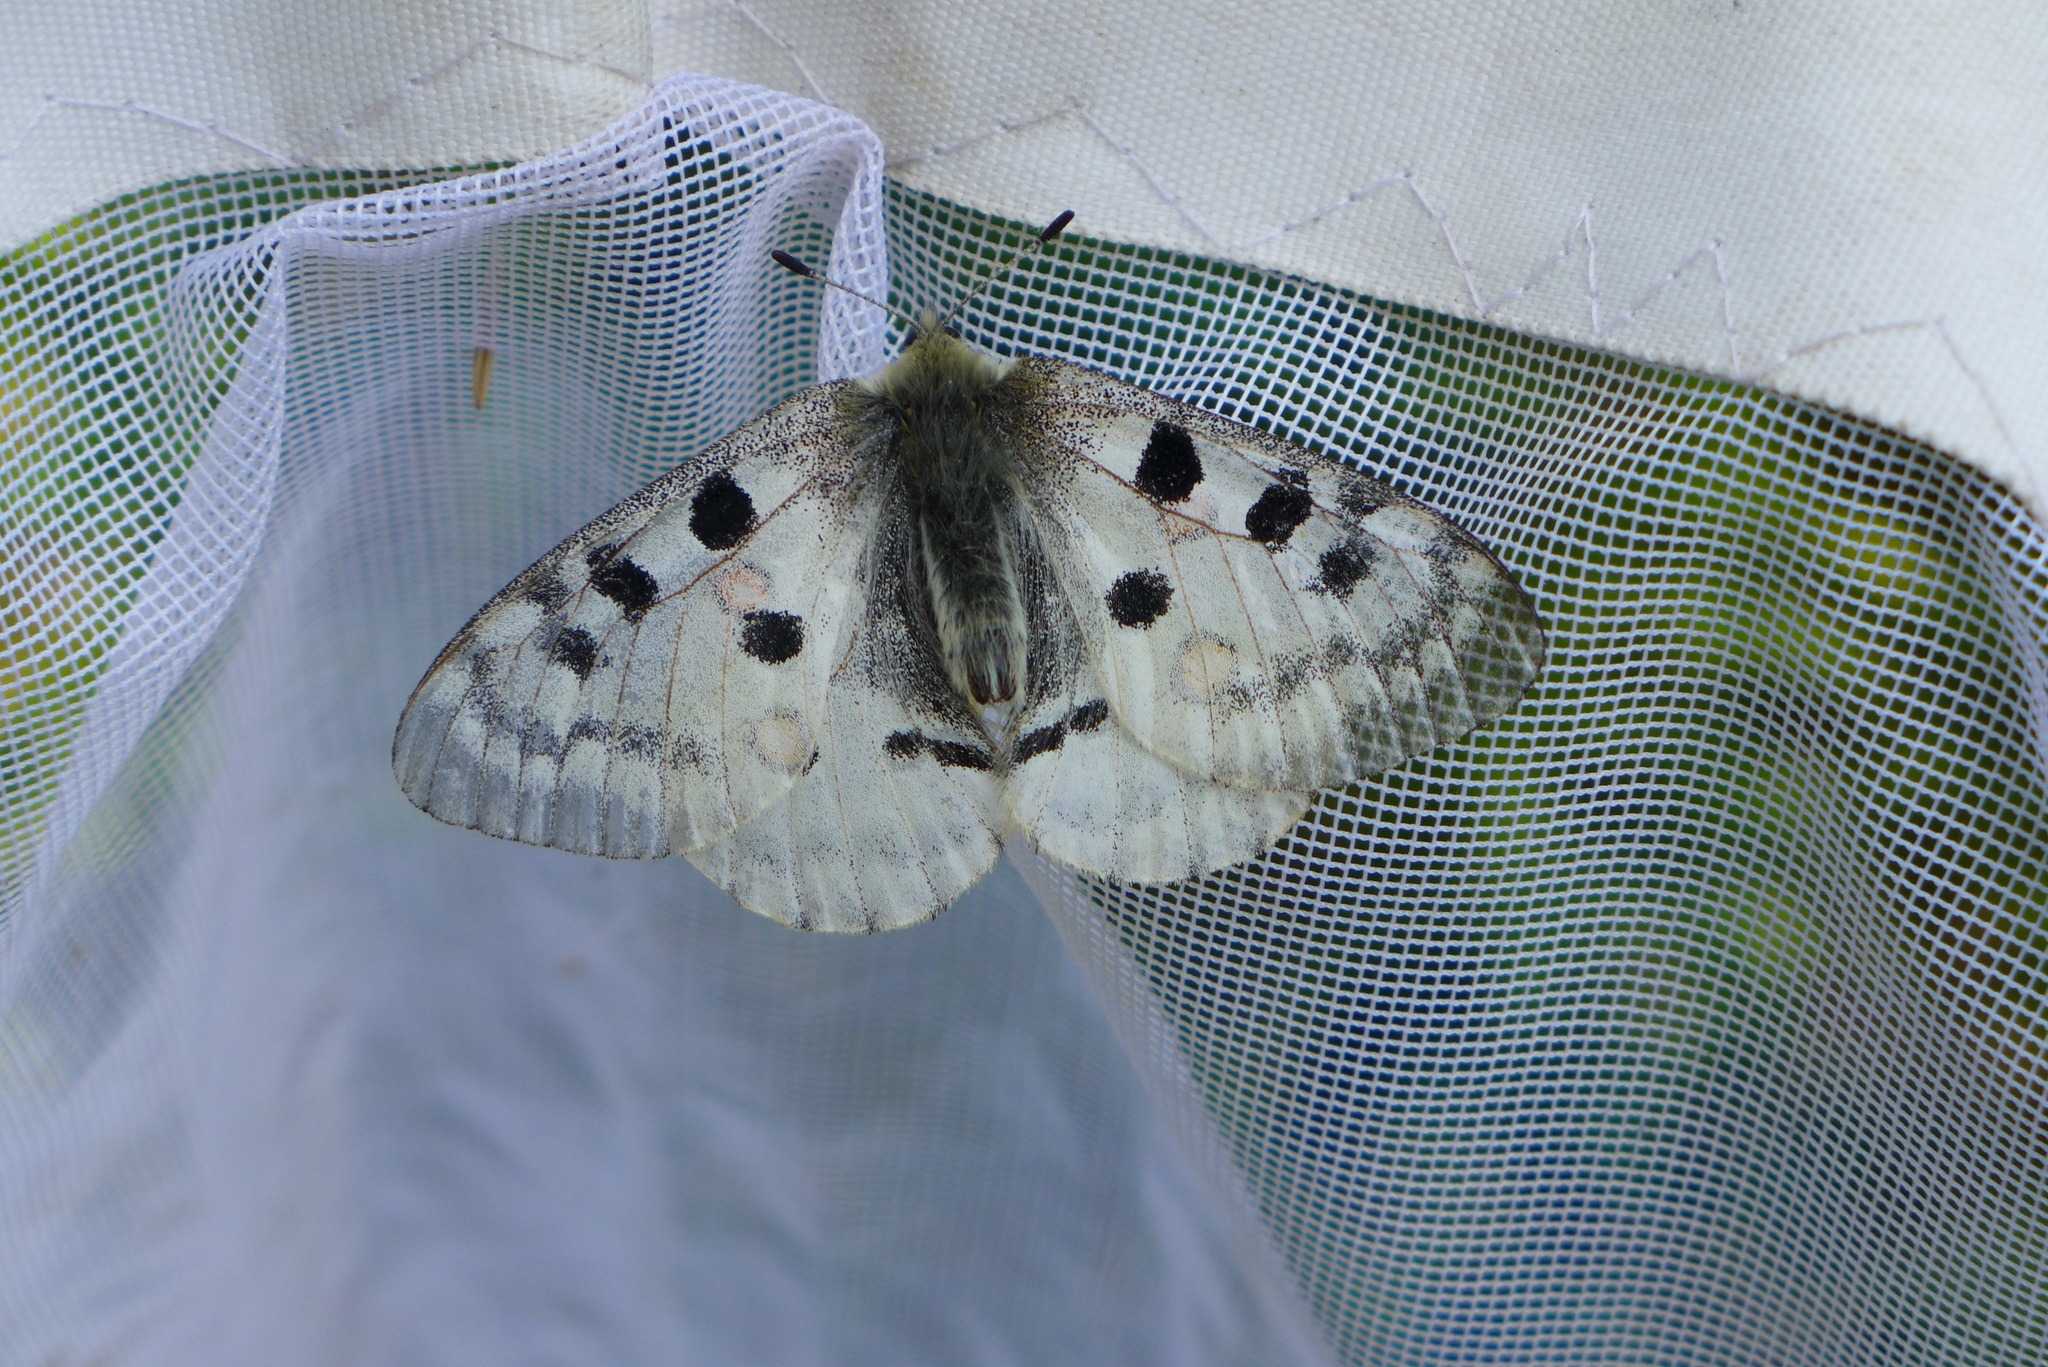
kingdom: Animalia
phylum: Arthropoda
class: Insecta
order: Lepidoptera
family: Papilionidae
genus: Parnassius
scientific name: Parnassius apollo
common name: Apollo
